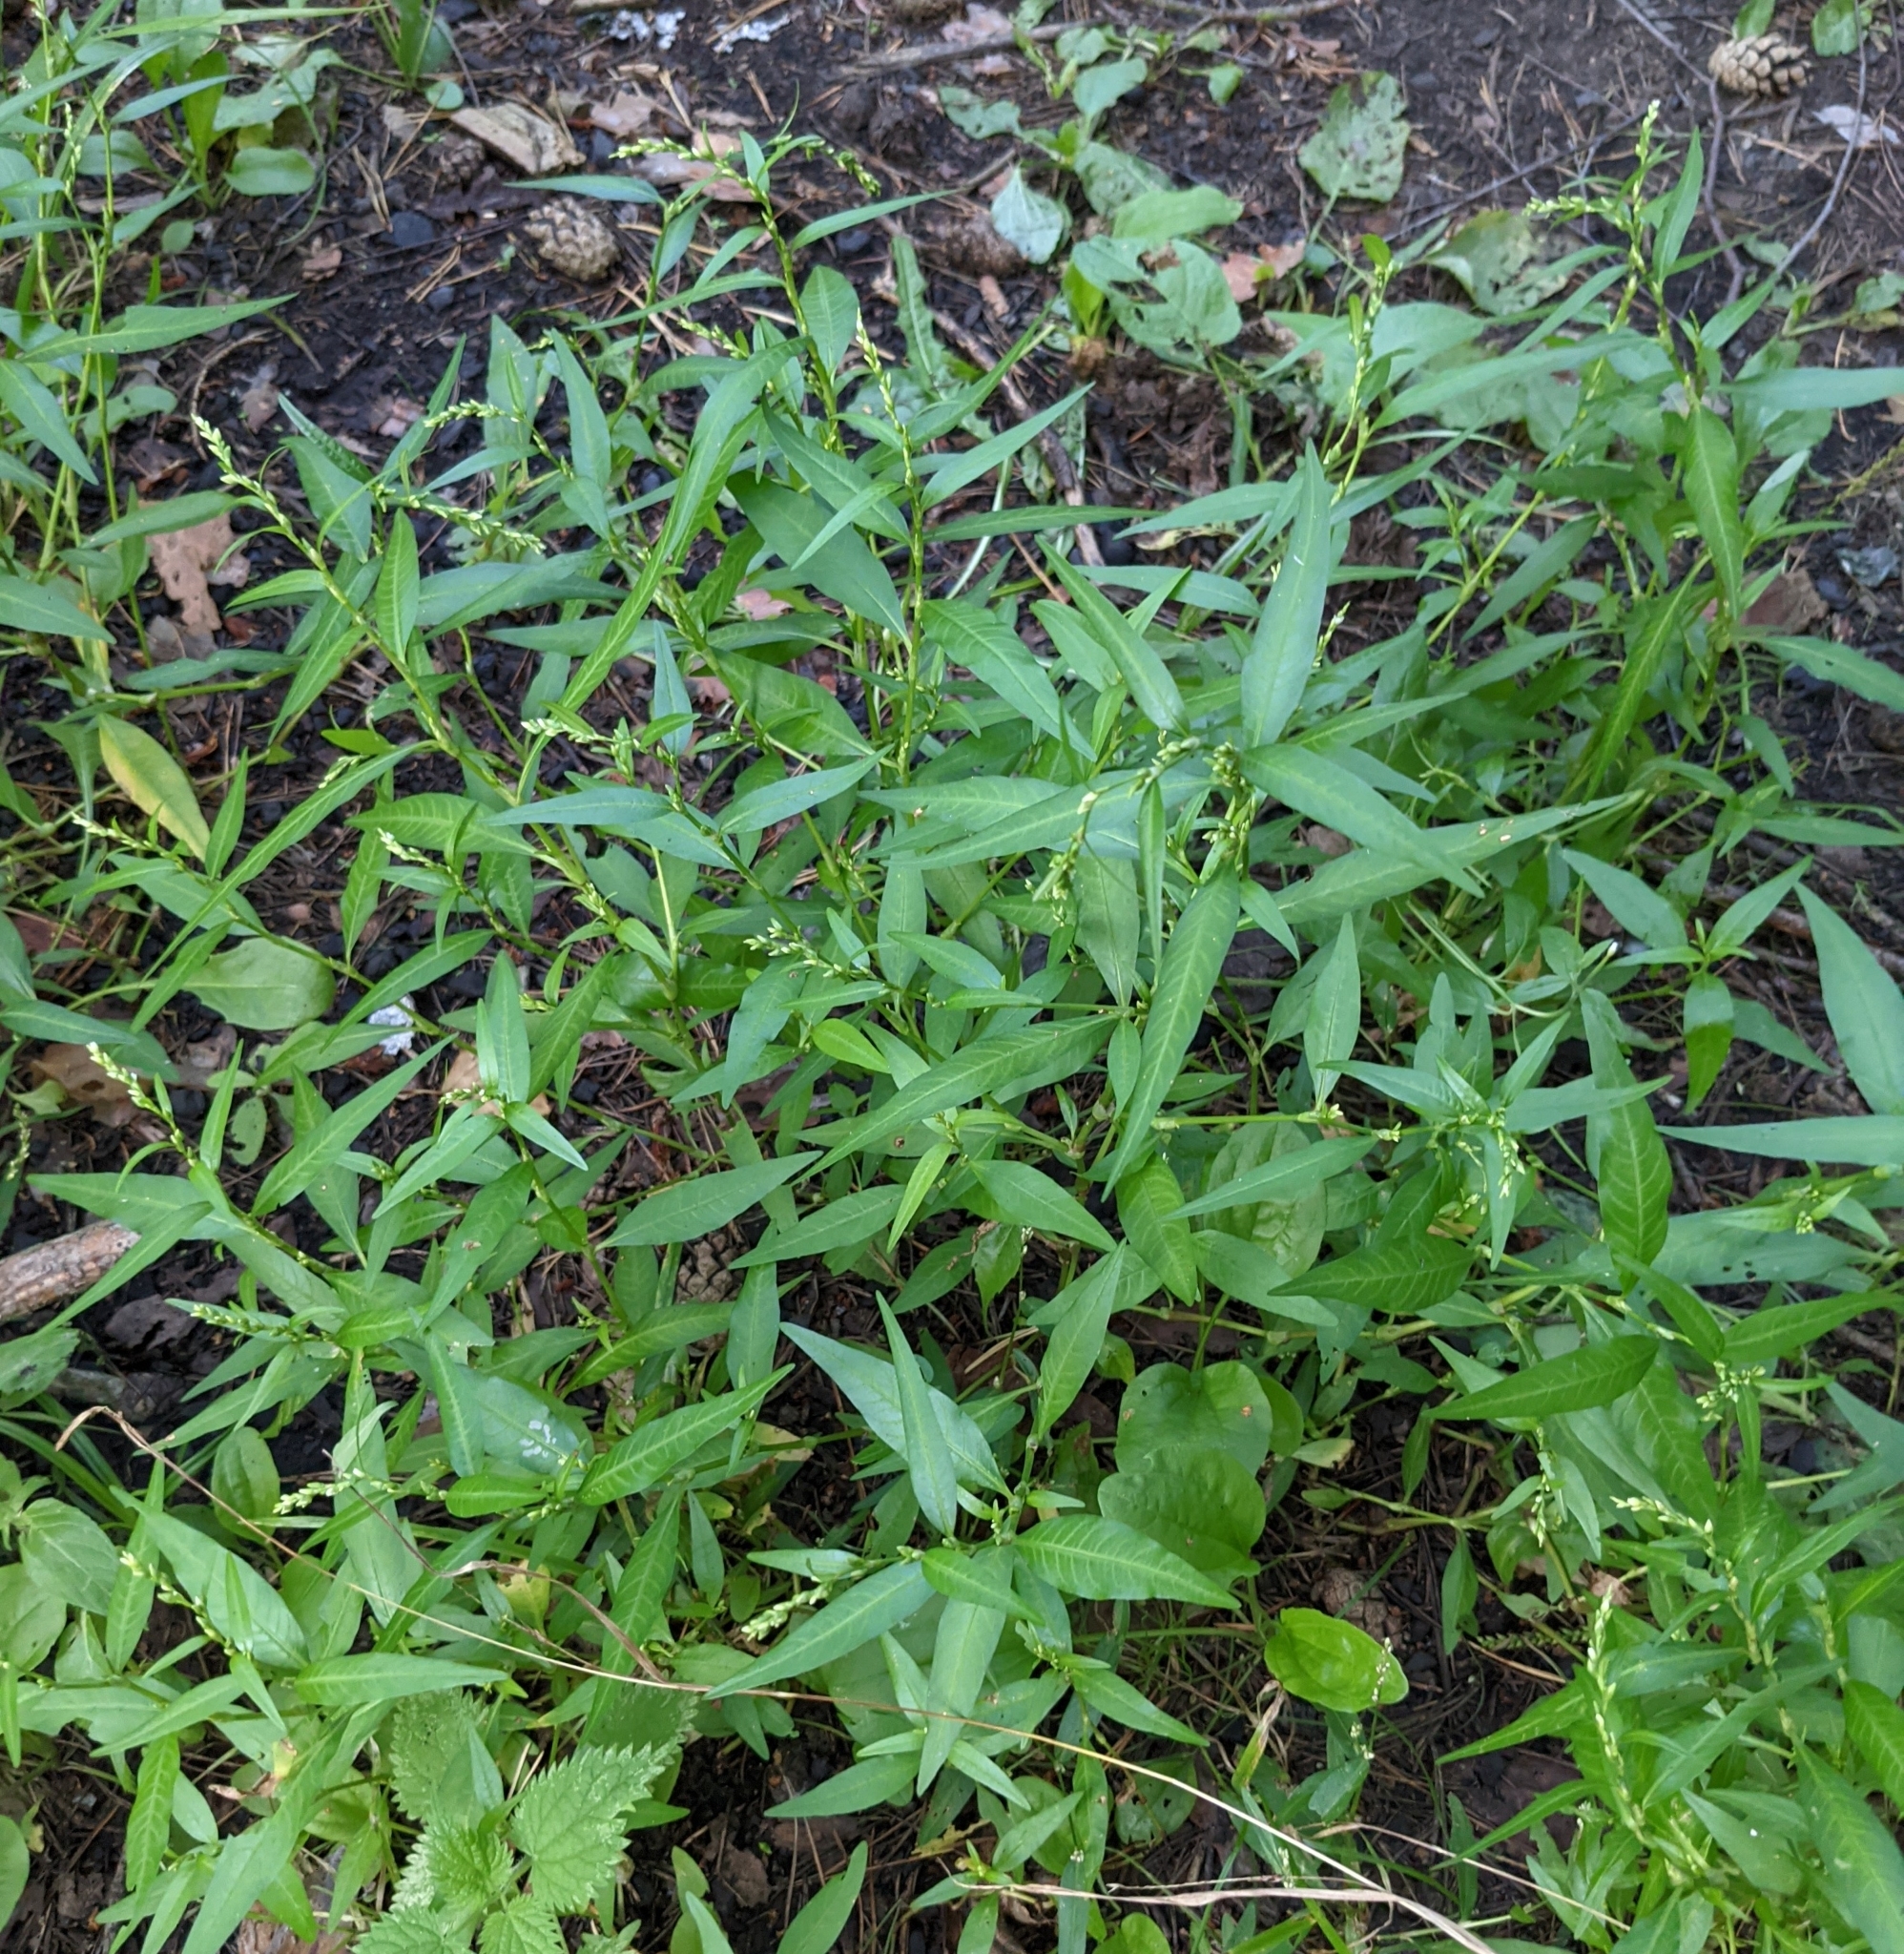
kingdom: Plantae
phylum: Tracheophyta
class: Magnoliopsida
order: Caryophyllales
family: Polygonaceae
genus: Persicaria
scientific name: Persicaria hydropiper
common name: Water-pepper
